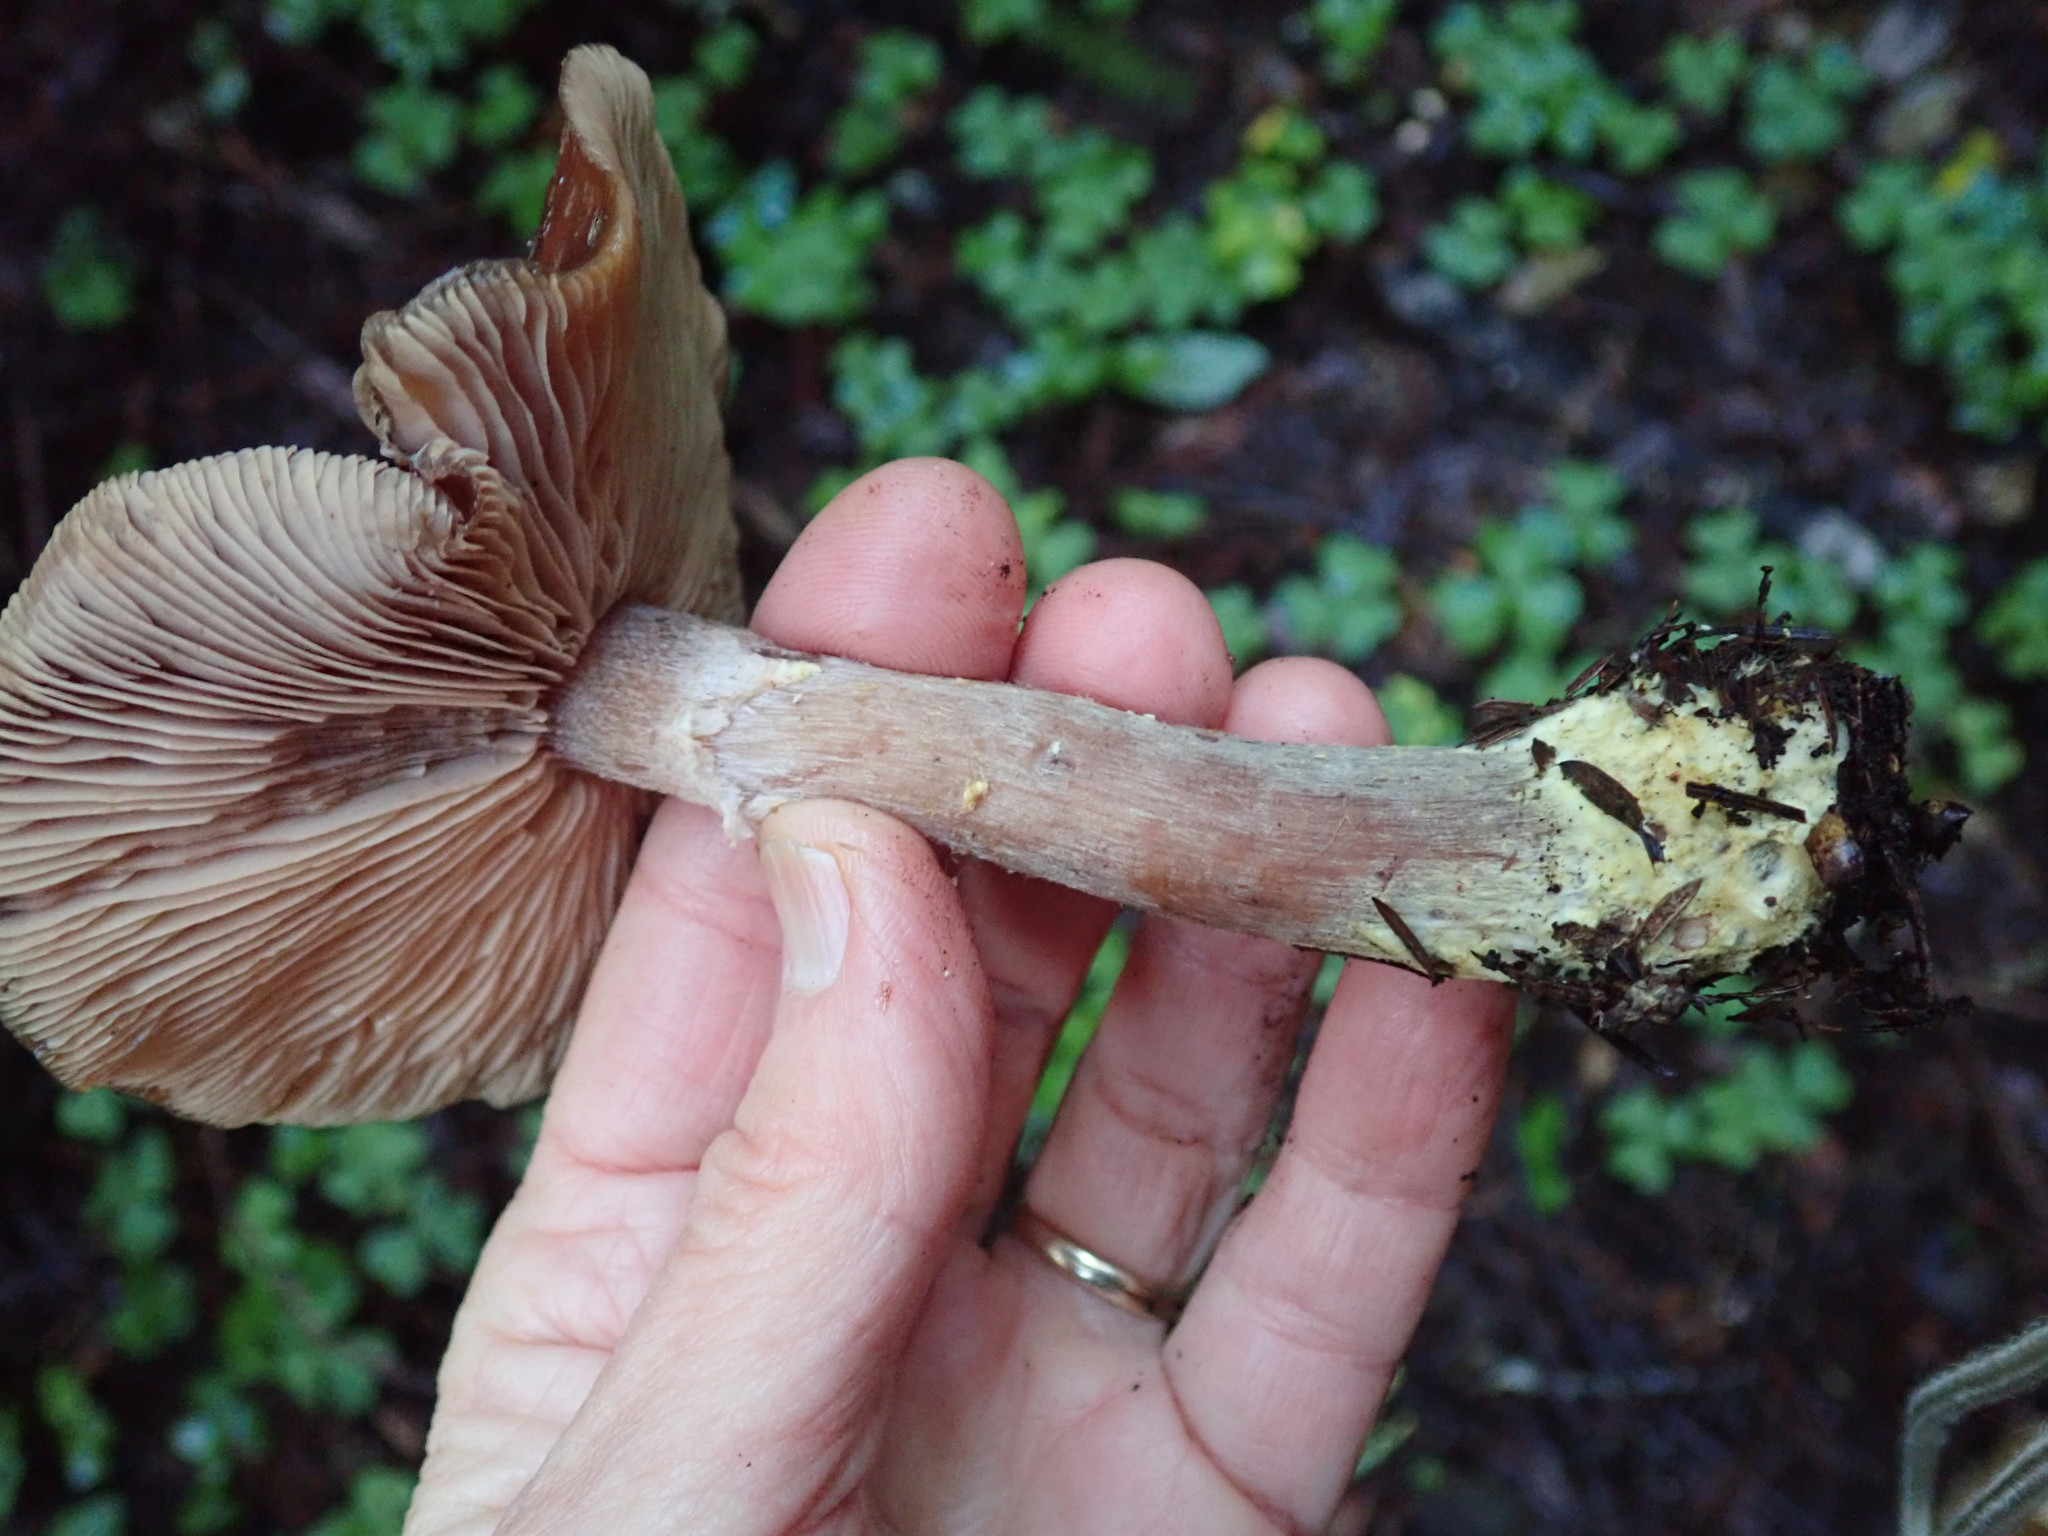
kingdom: Fungi
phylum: Basidiomycota
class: Agaricomycetes
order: Agaricales
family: Physalacriaceae
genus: Armillaria
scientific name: Armillaria sinapina
